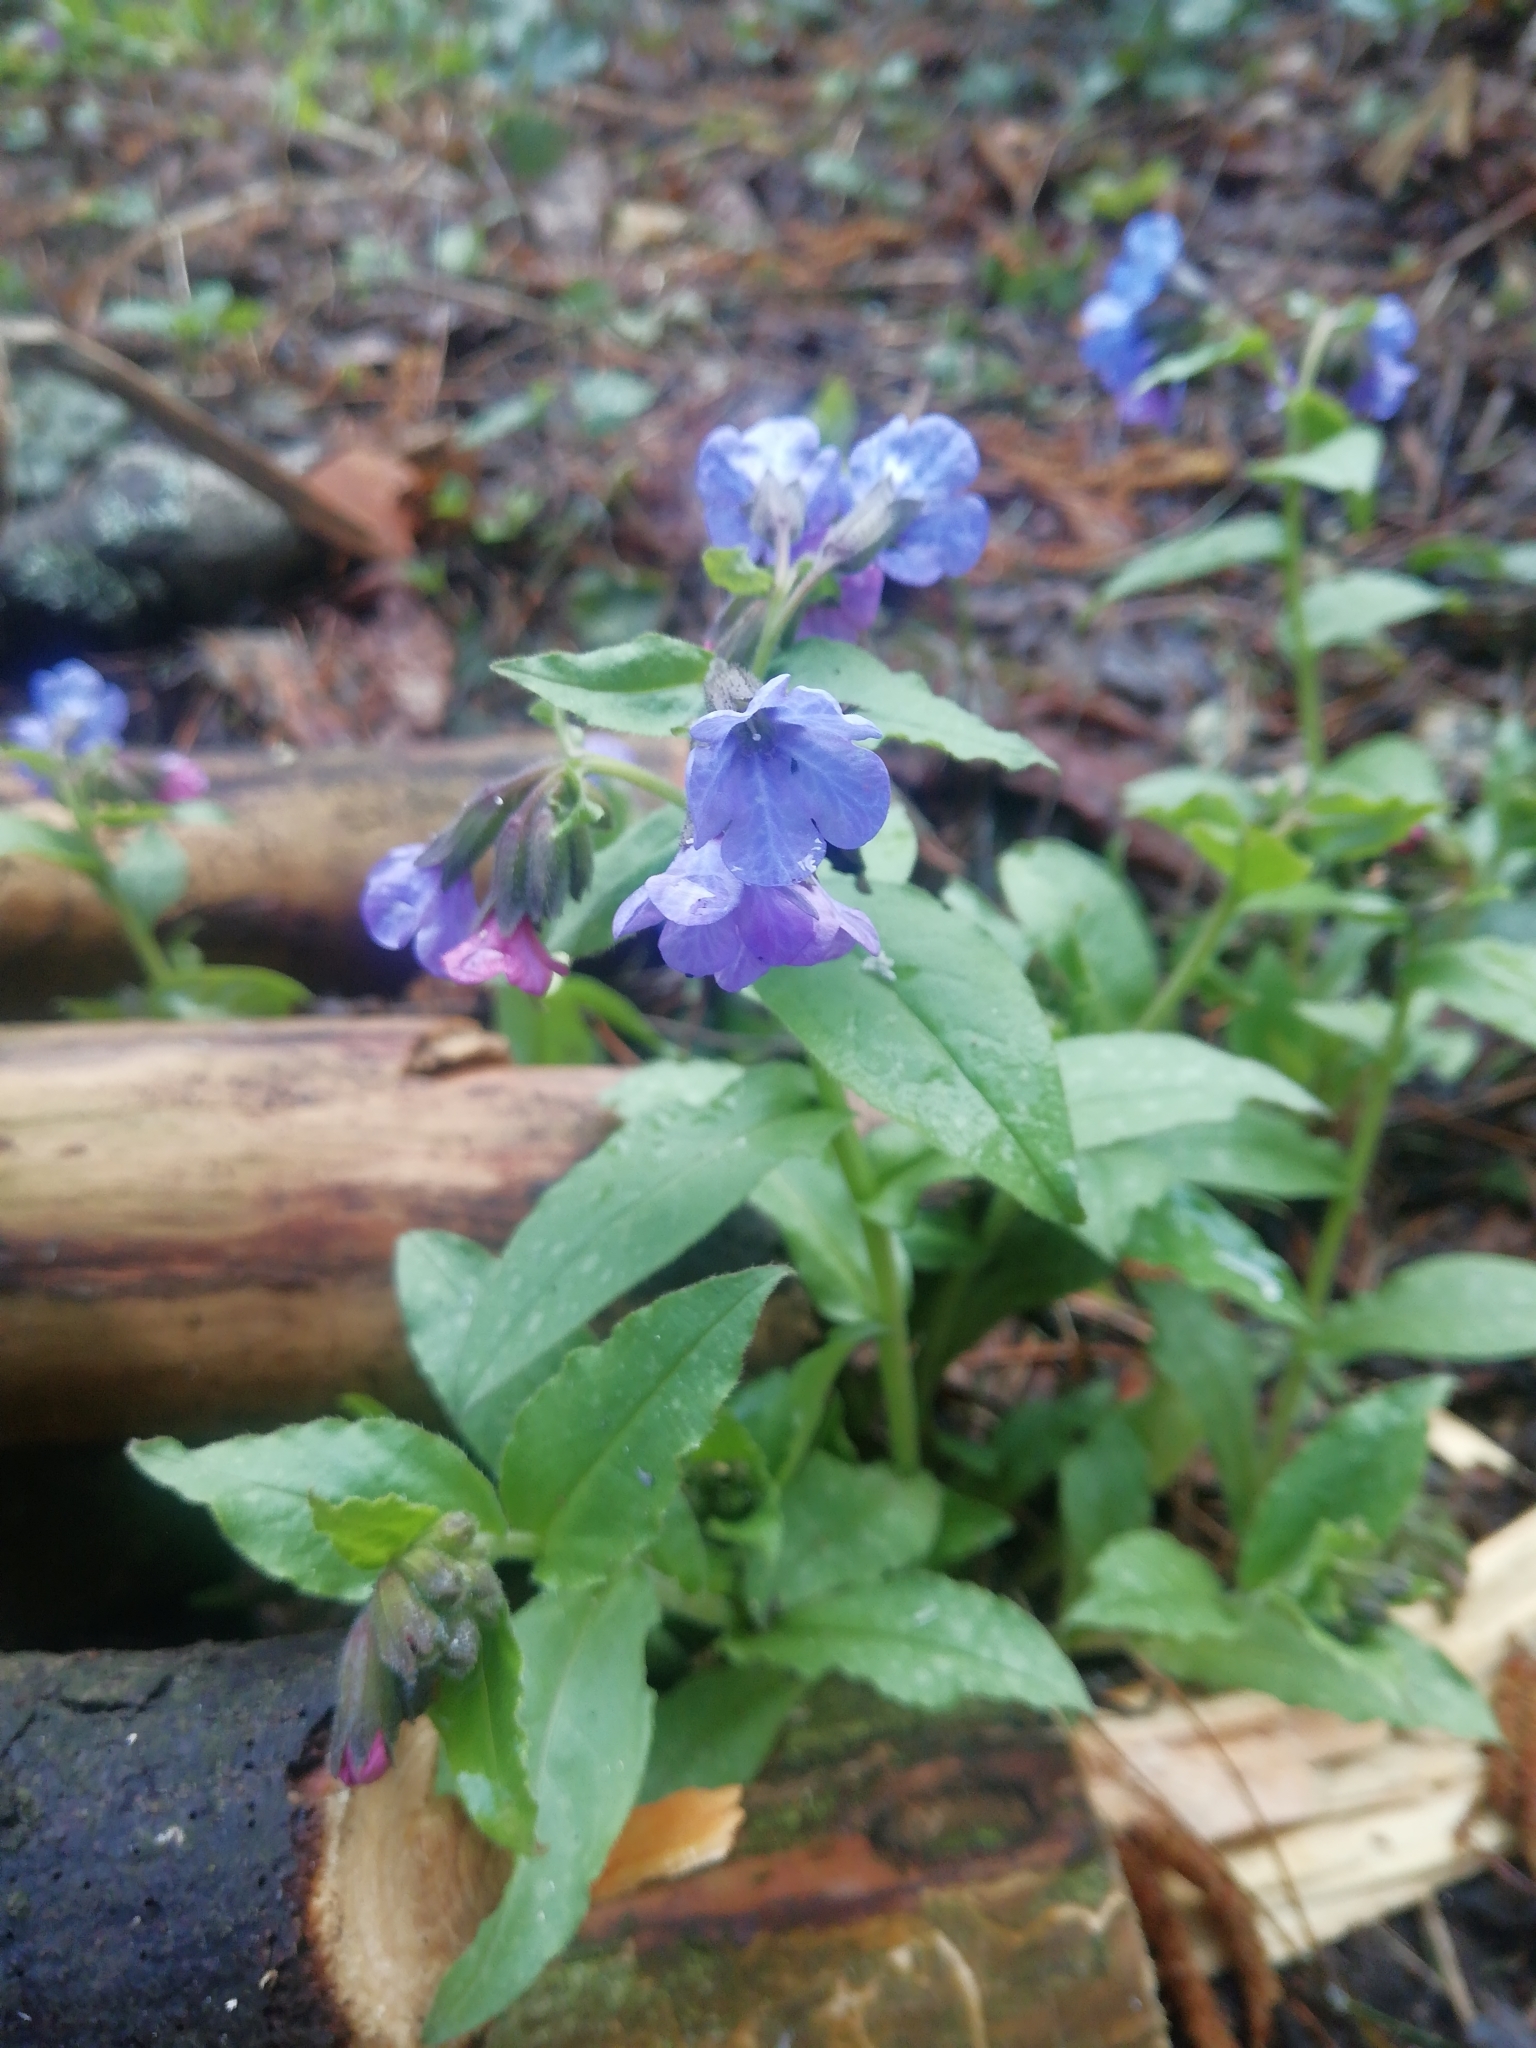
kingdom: Plantae
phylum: Tracheophyta
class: Magnoliopsida
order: Boraginales
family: Boraginaceae
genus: Pulmonaria
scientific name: Pulmonaria obscura
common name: Suffolk lungwort
